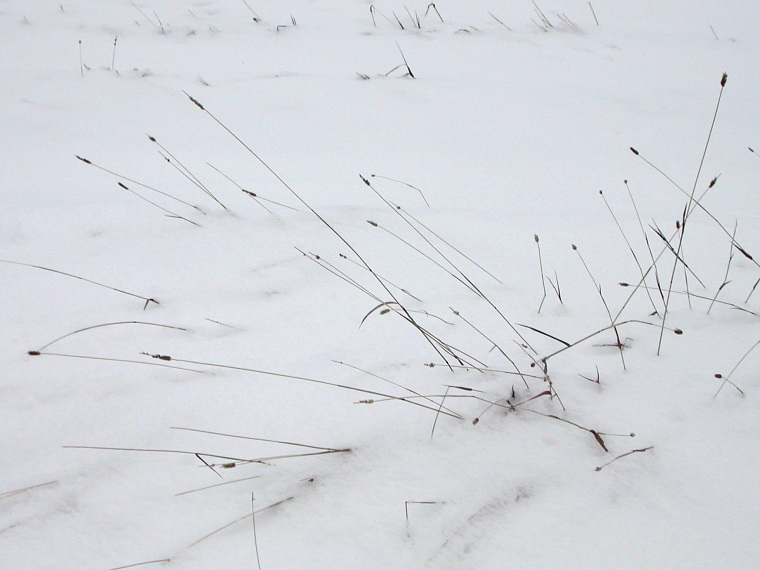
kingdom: Plantae
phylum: Tracheophyta
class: Liliopsida
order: Poales
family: Poaceae
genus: Phleum
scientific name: Phleum pratense
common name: Timothy grass
